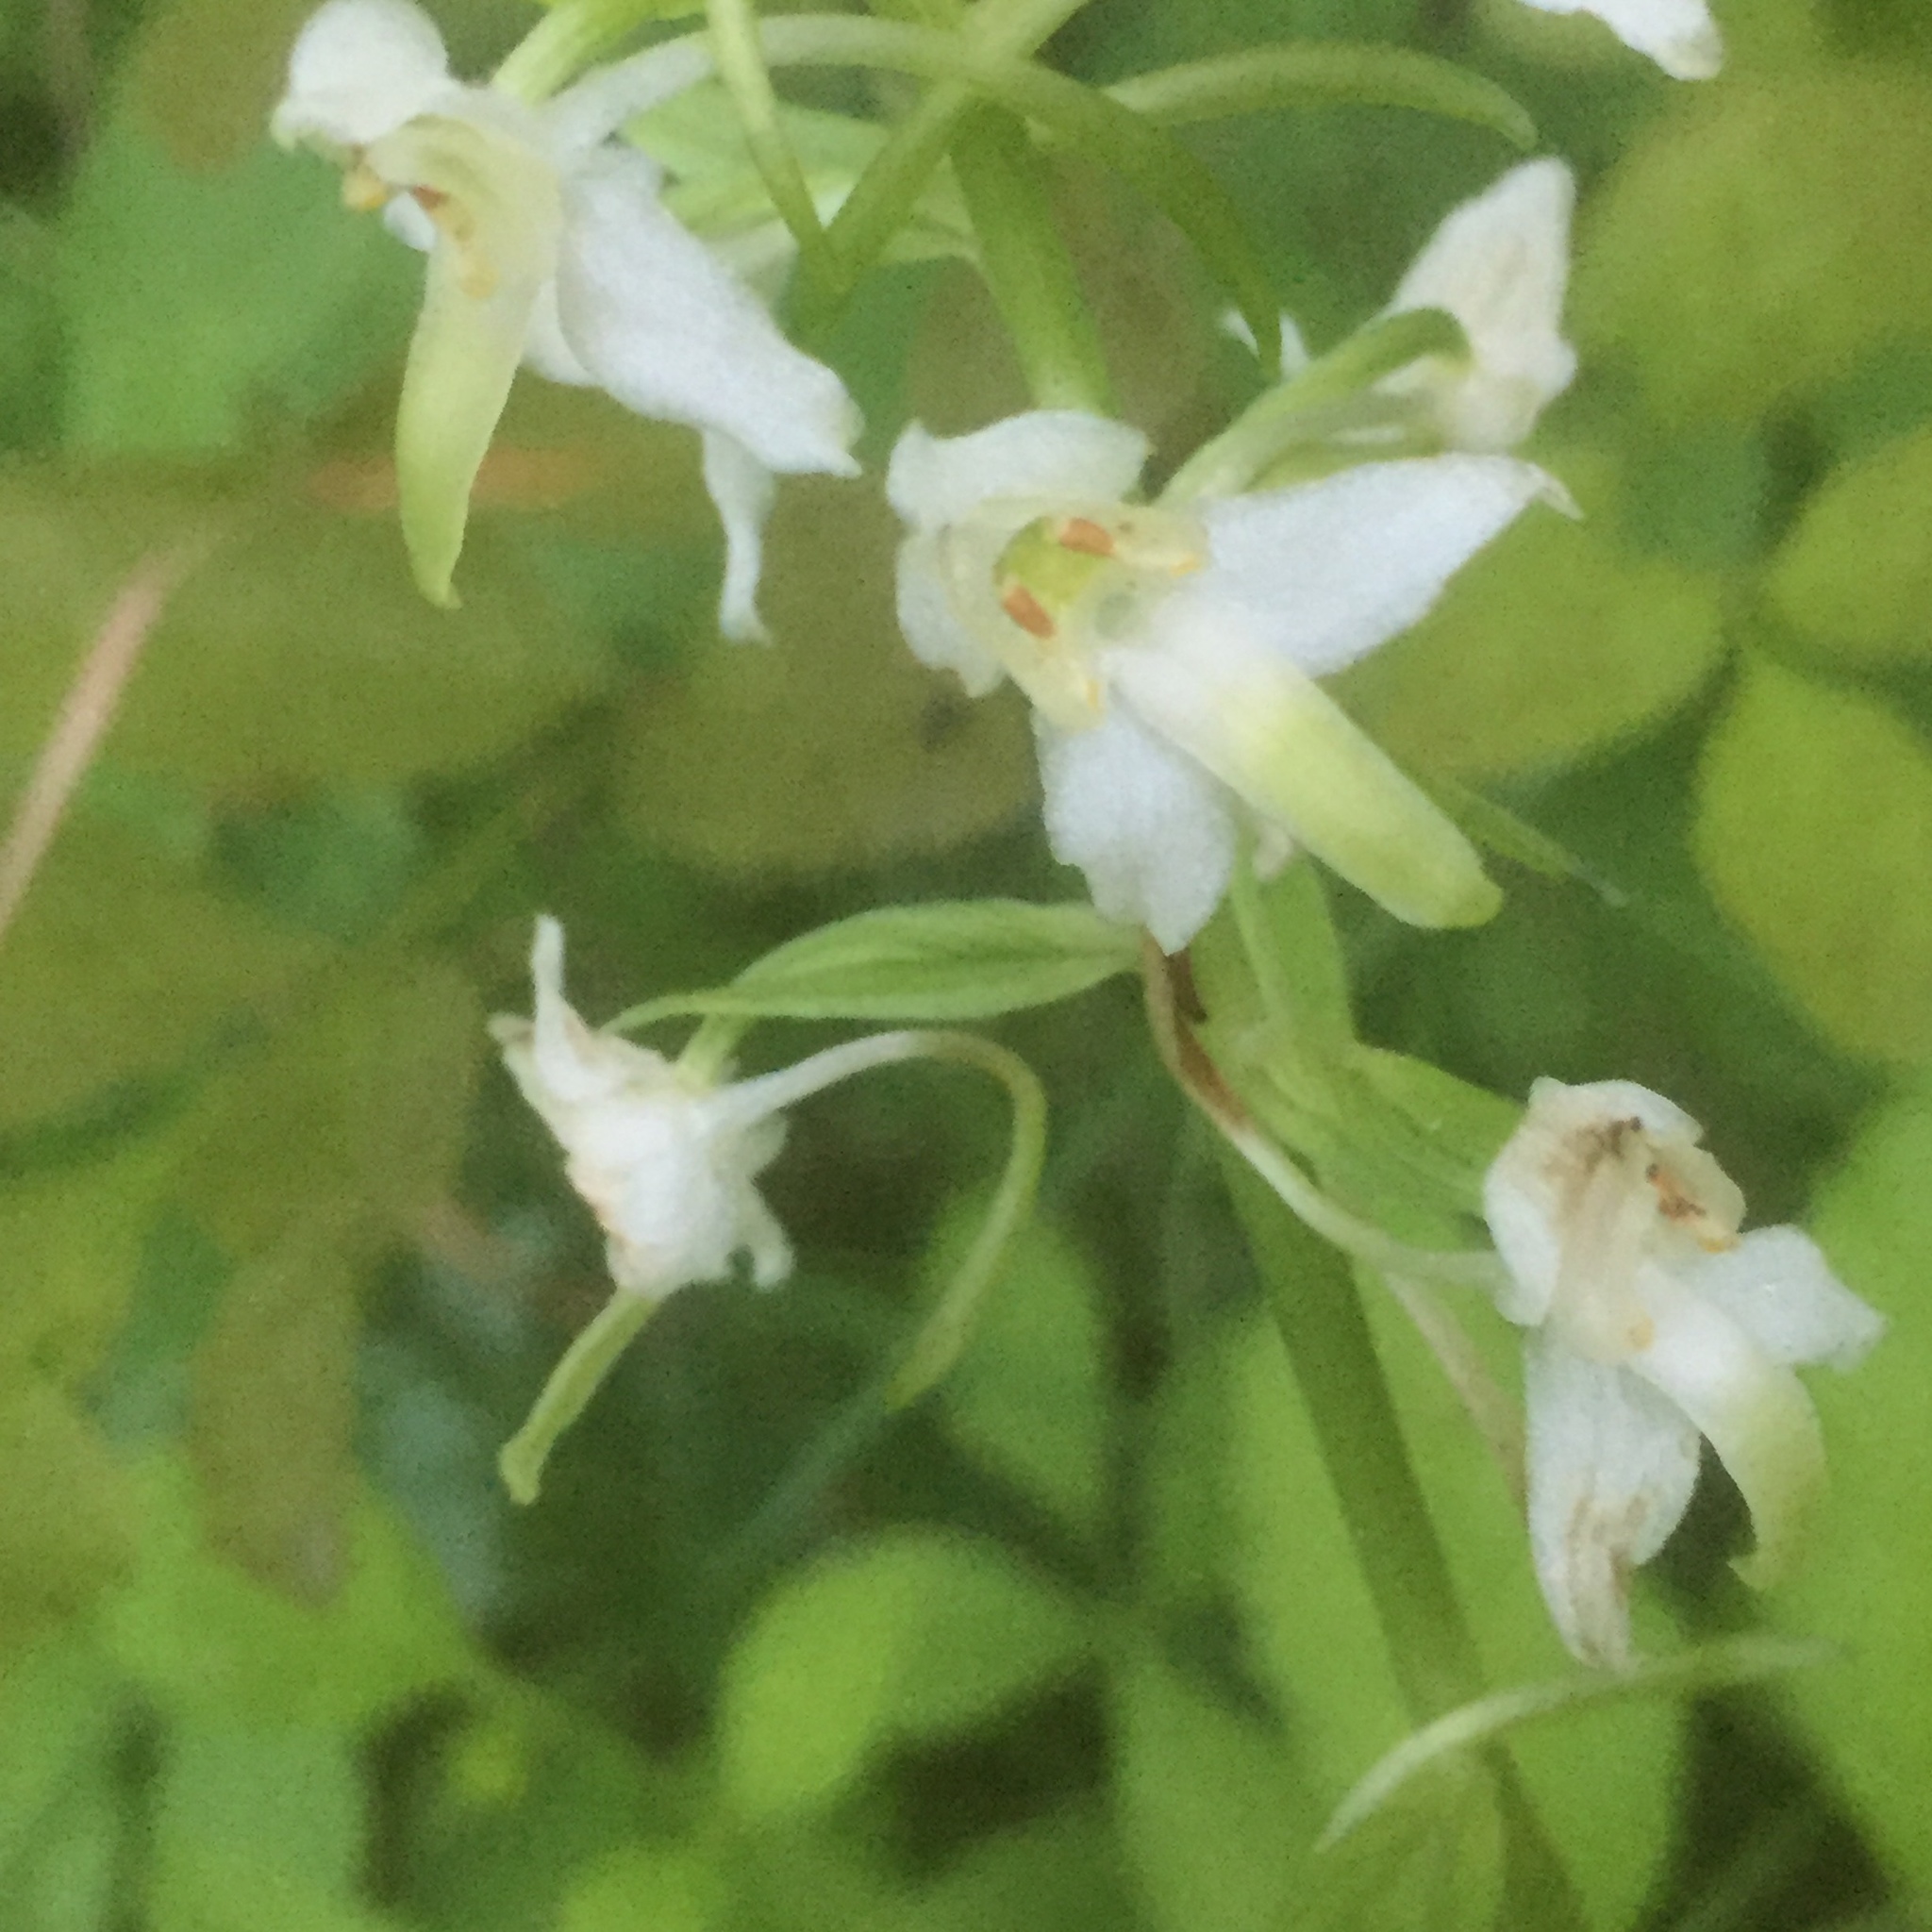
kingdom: Plantae
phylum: Tracheophyta
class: Liliopsida
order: Asparagales
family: Orchidaceae
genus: Platanthera
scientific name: Platanthera chlorantha
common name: Greater butterfly-orchid
